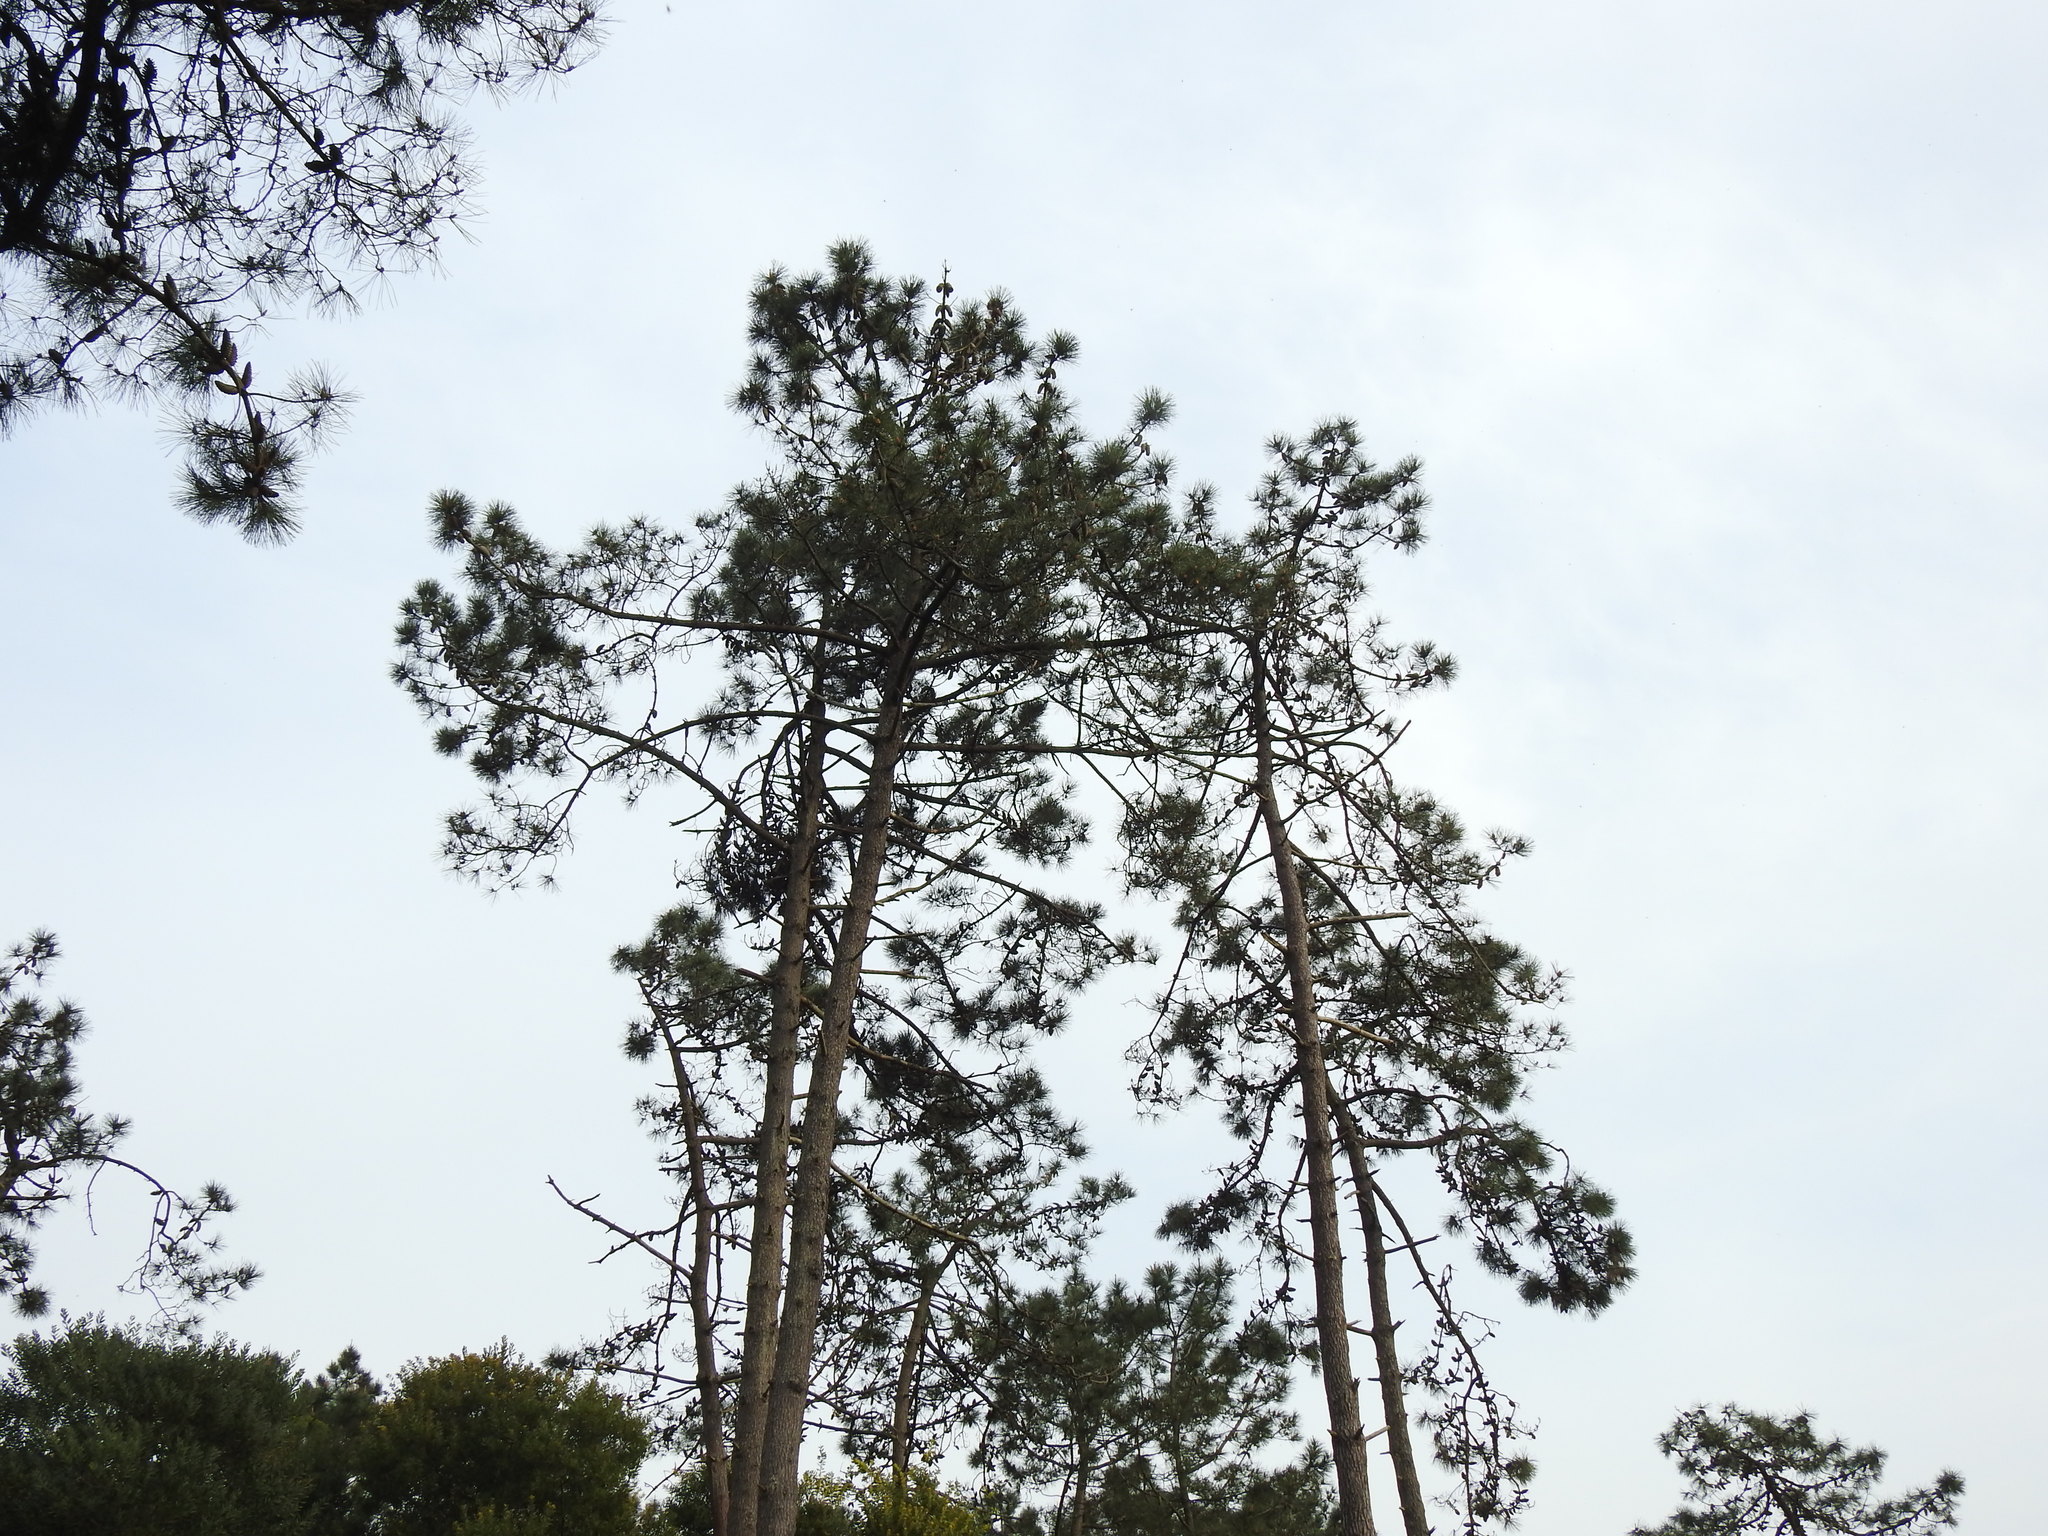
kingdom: Plantae
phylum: Tracheophyta
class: Pinopsida
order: Pinales
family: Pinaceae
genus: Pinus
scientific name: Pinus pinaster
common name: Maritime pine
